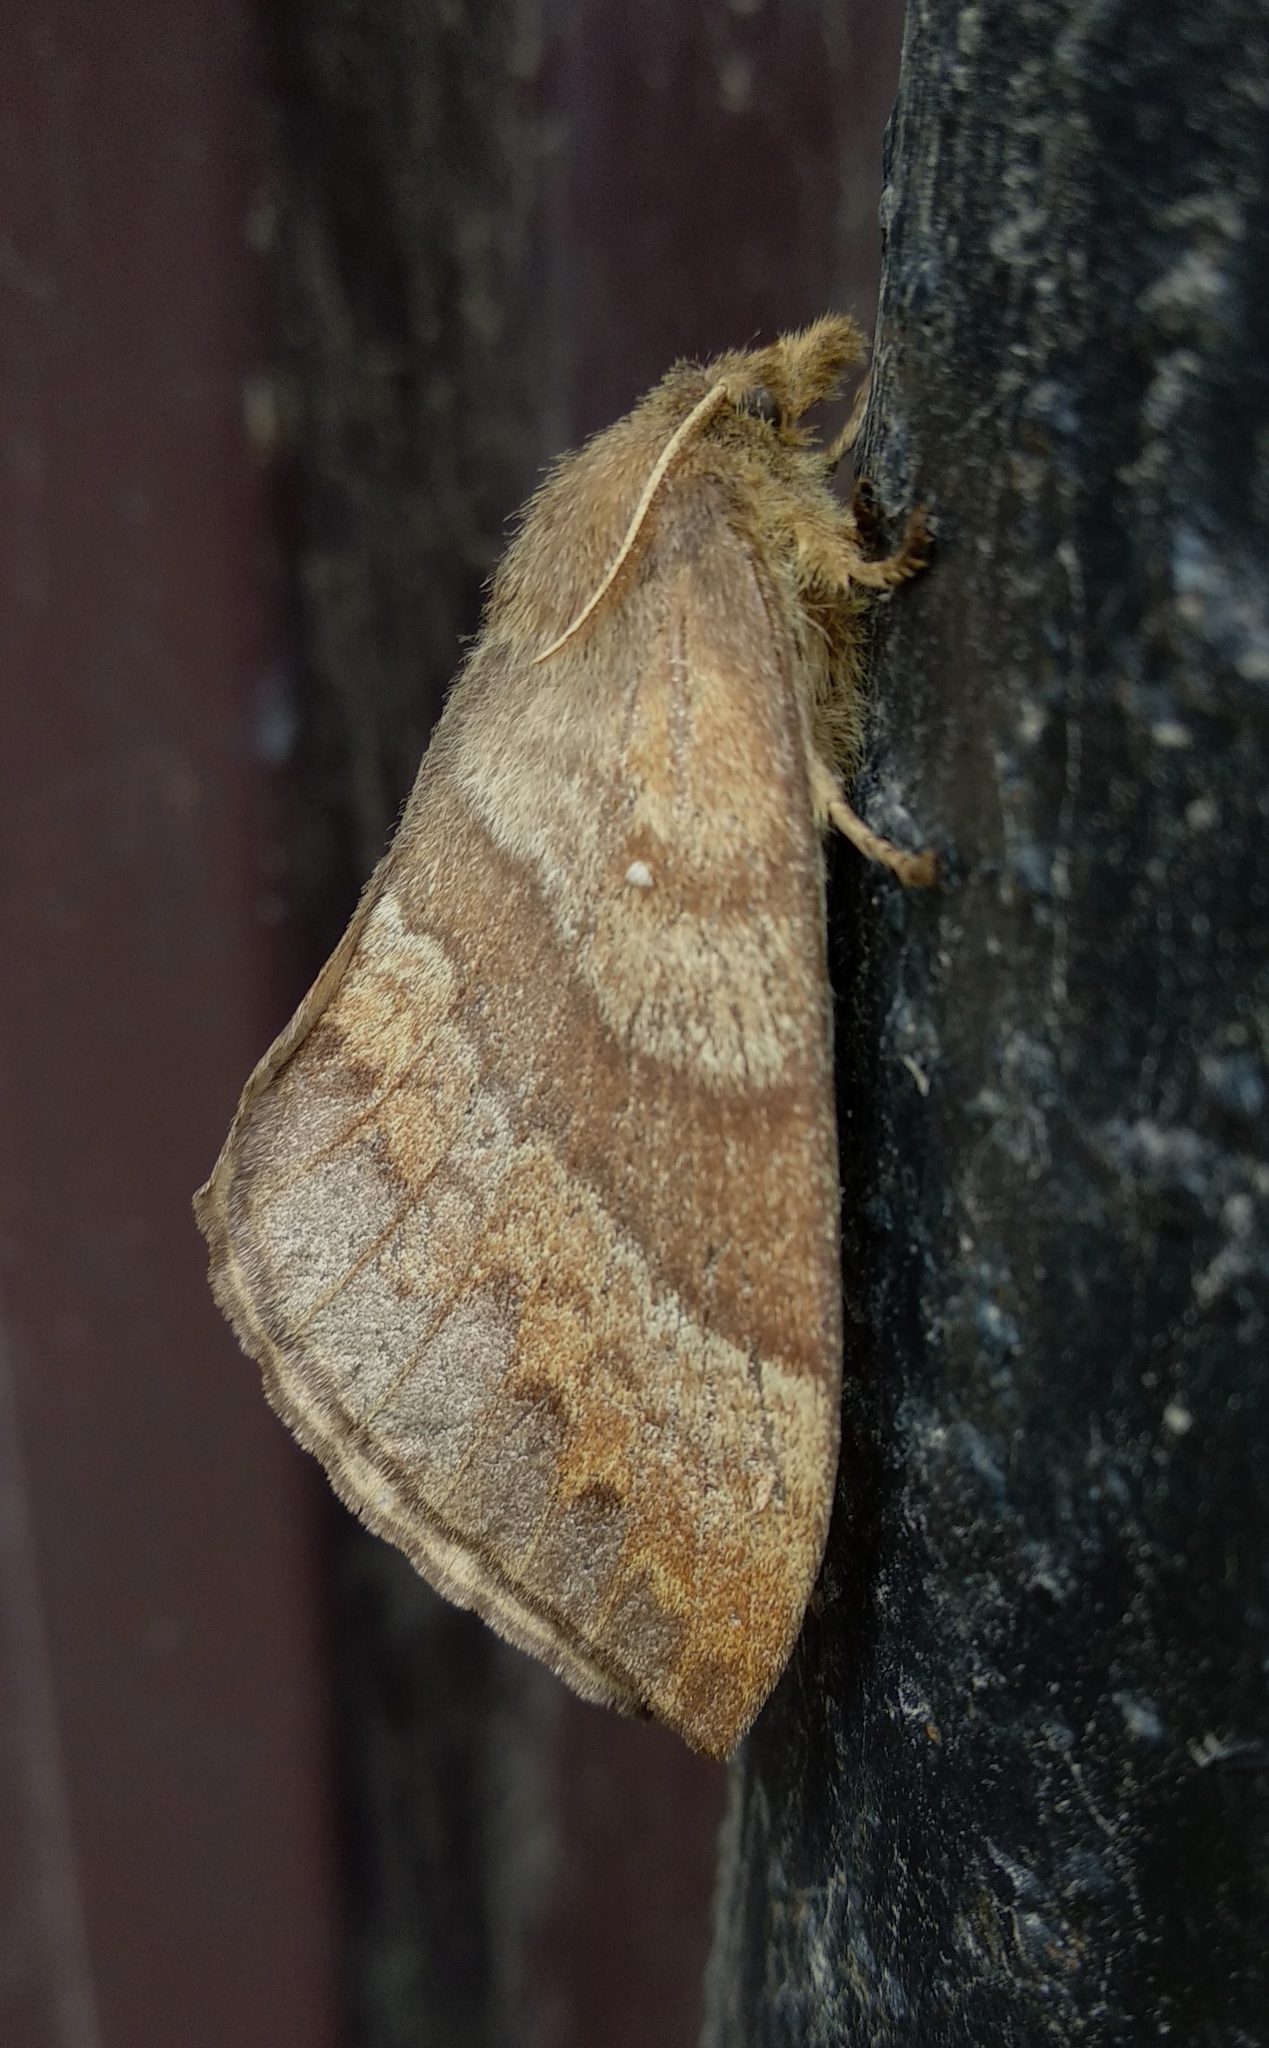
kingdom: Animalia
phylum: Arthropoda
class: Insecta
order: Lepidoptera
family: Lasiocampidae
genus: Kunugia
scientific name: Kunugia undans
